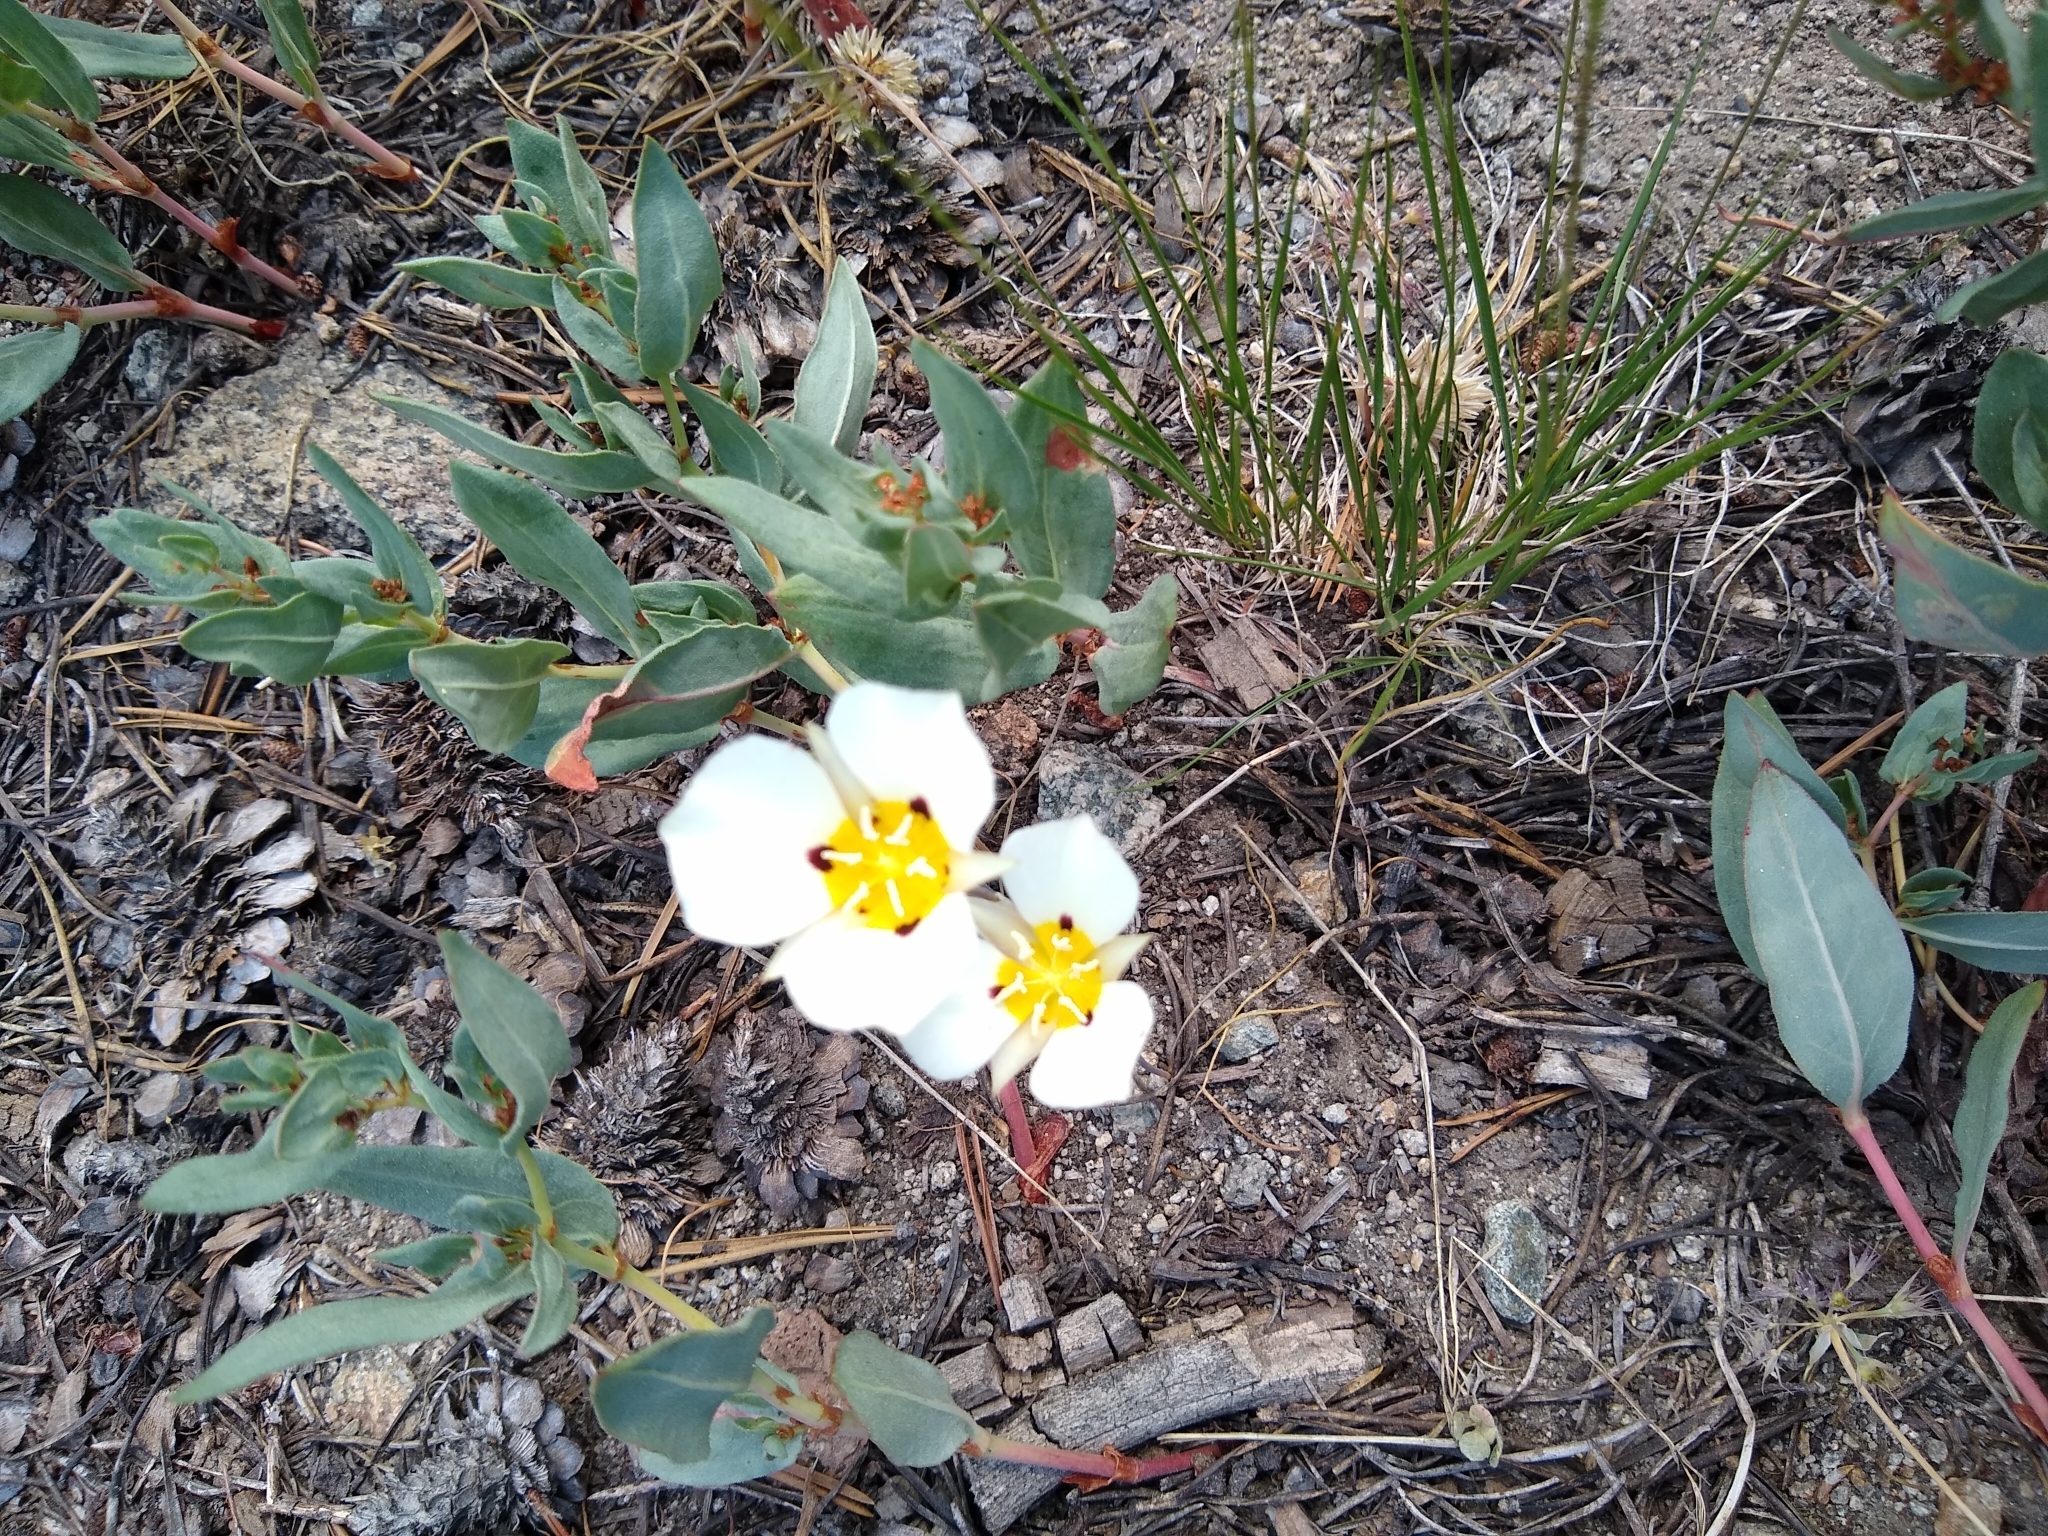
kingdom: Plantae
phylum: Tracheophyta
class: Liliopsida
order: Liliales
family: Liliaceae
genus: Calochortus
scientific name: Calochortus leichtlinii
